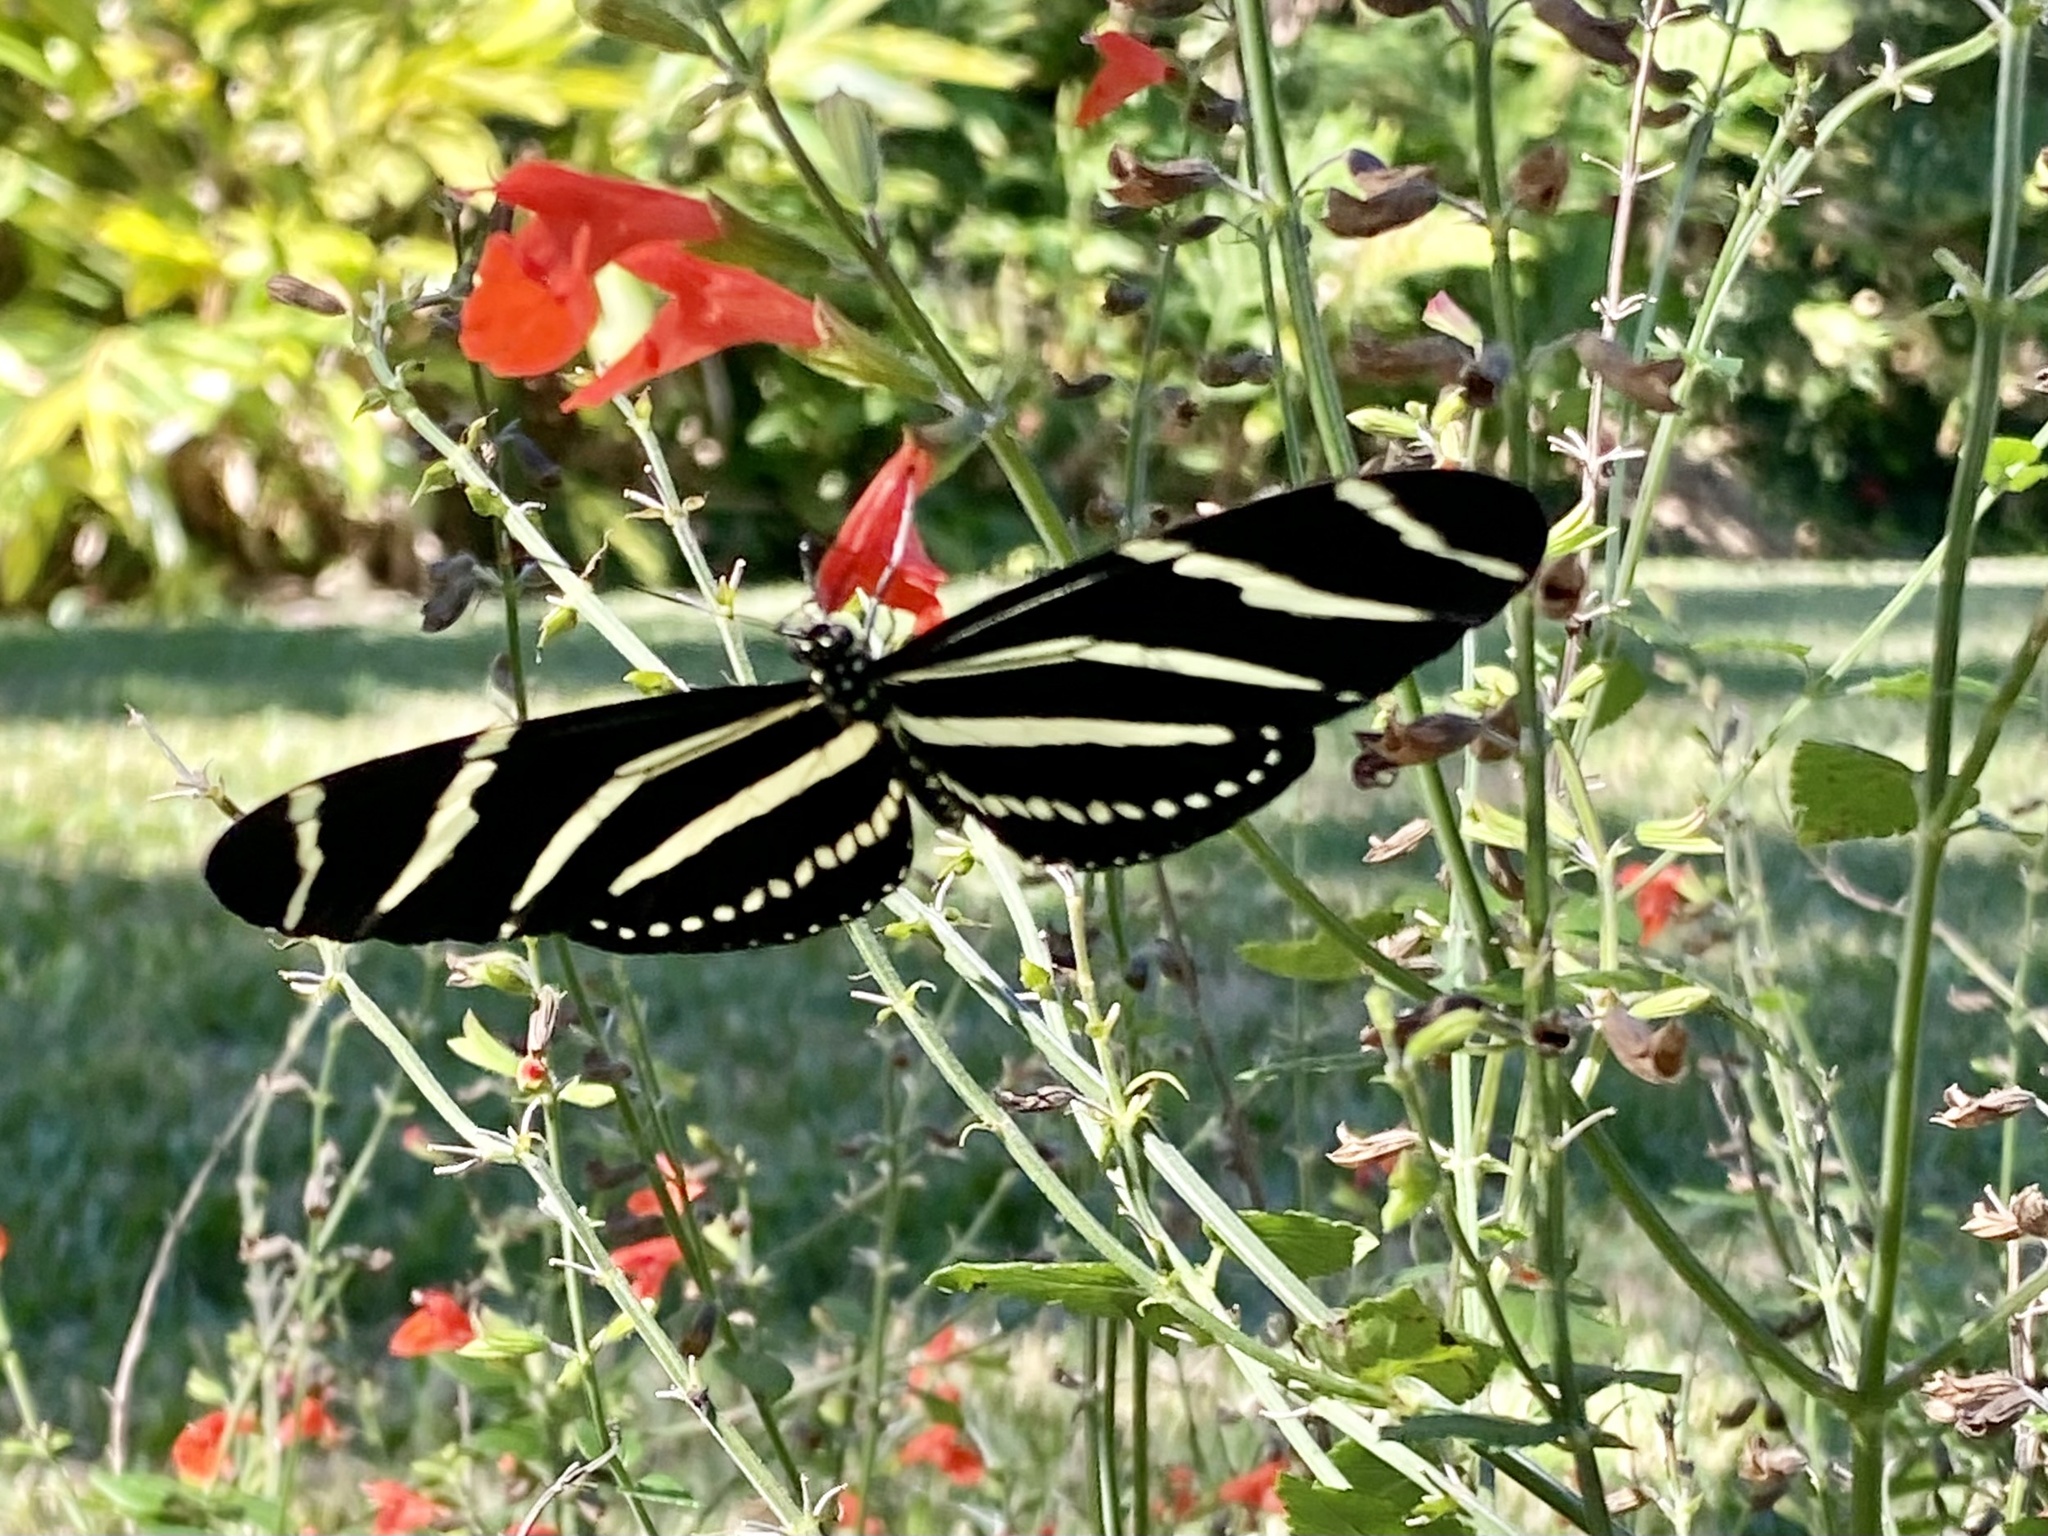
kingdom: Animalia
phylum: Arthropoda
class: Insecta
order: Lepidoptera
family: Nymphalidae
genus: Heliconius
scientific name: Heliconius charithonia
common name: Zebra long wing
